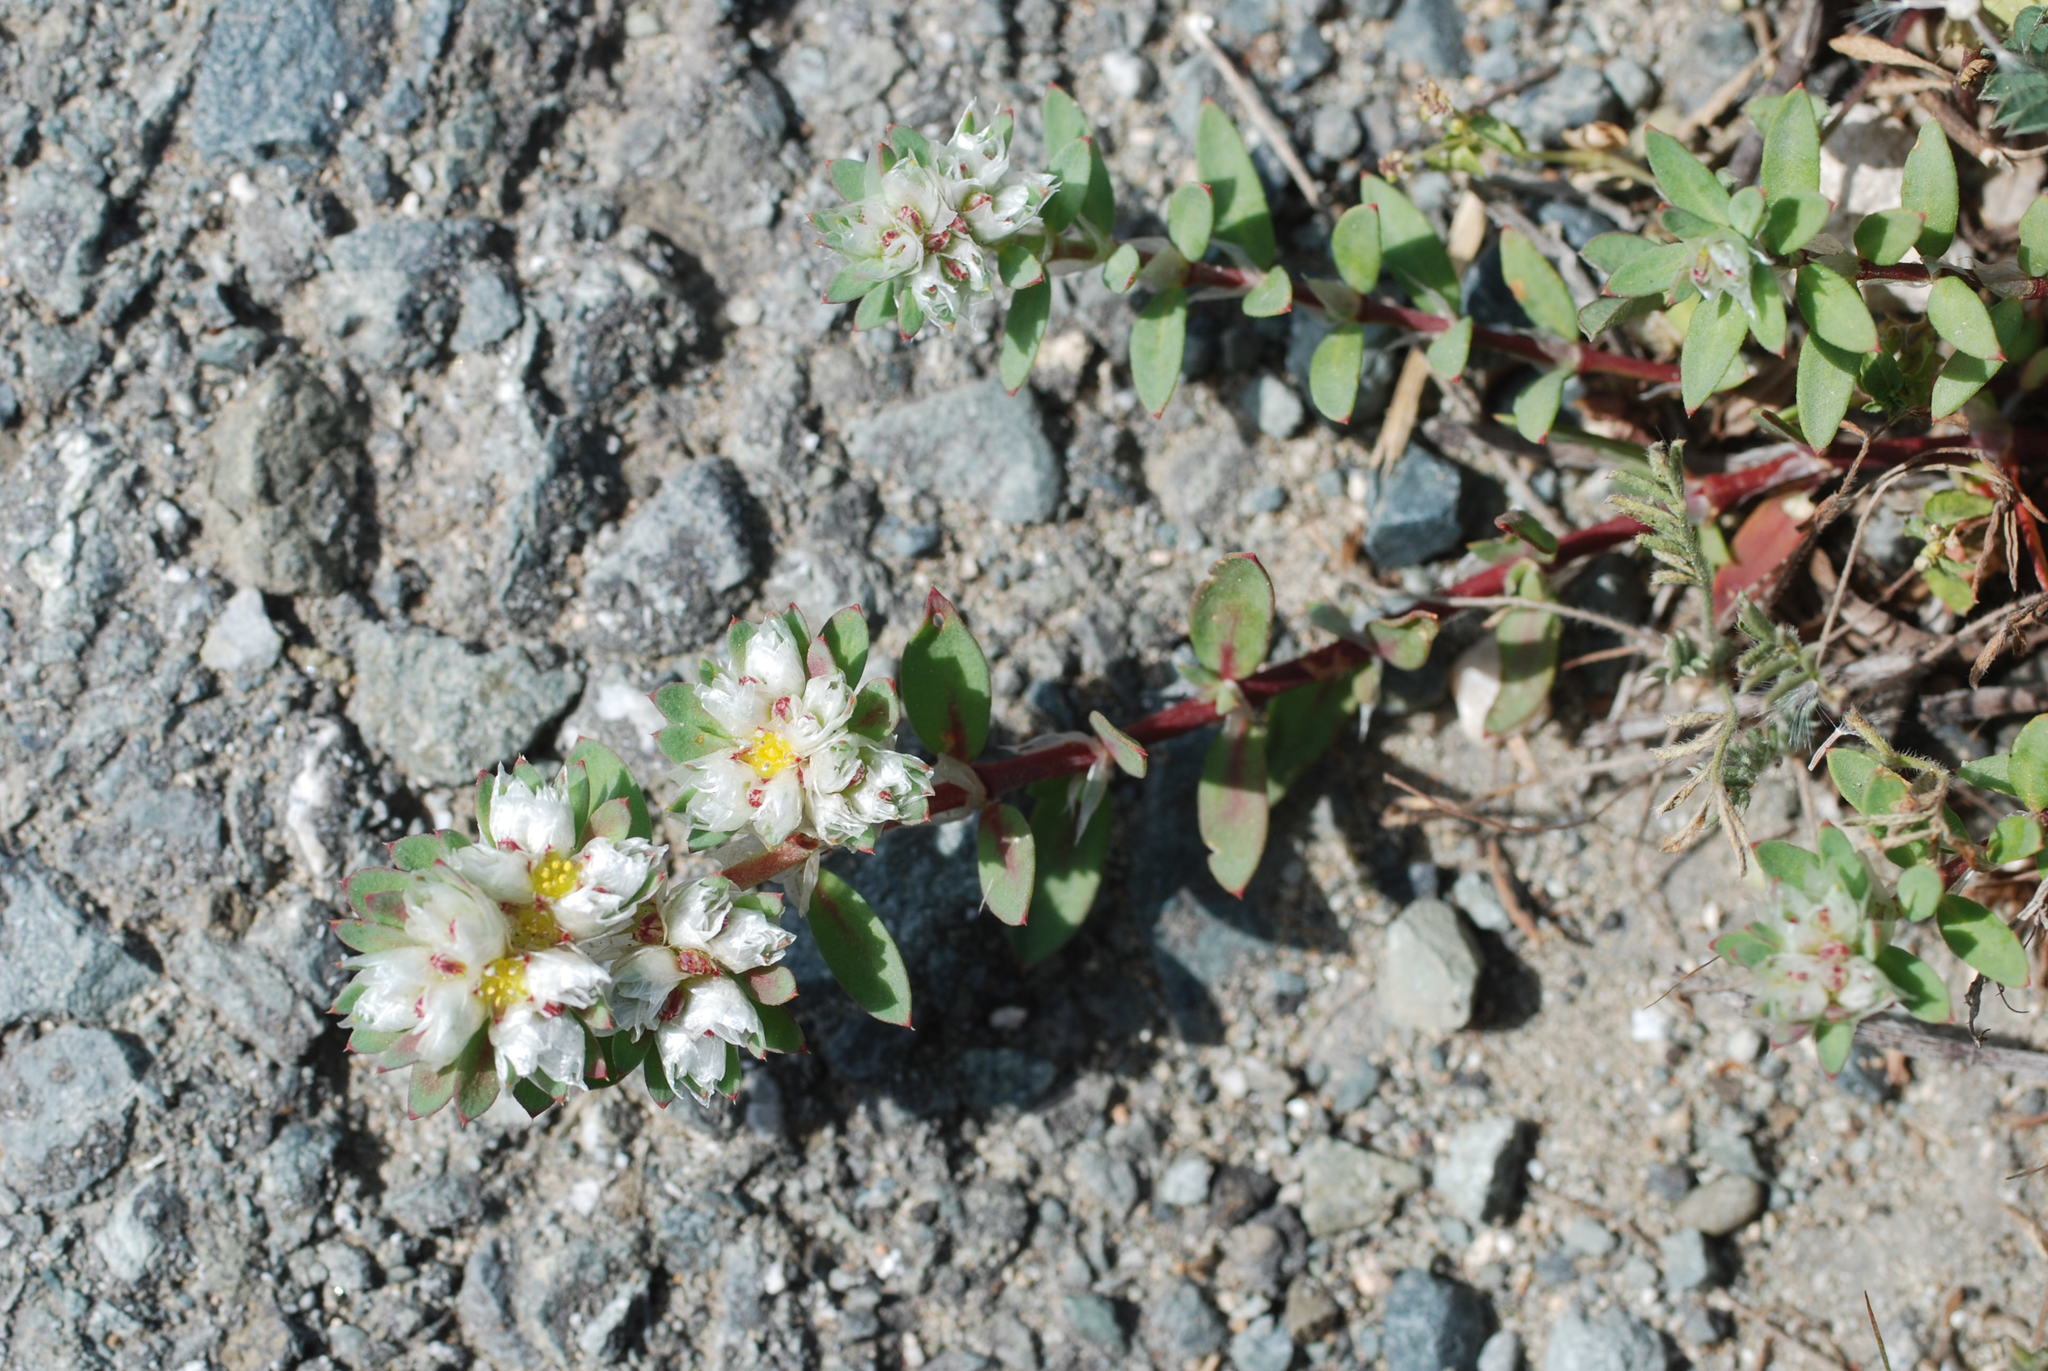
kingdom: Plantae
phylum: Tracheophyta
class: Magnoliopsida
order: Caryophyllales
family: Caryophyllaceae
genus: Paronychia
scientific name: Paronychia argentea
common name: Silver nailroot
